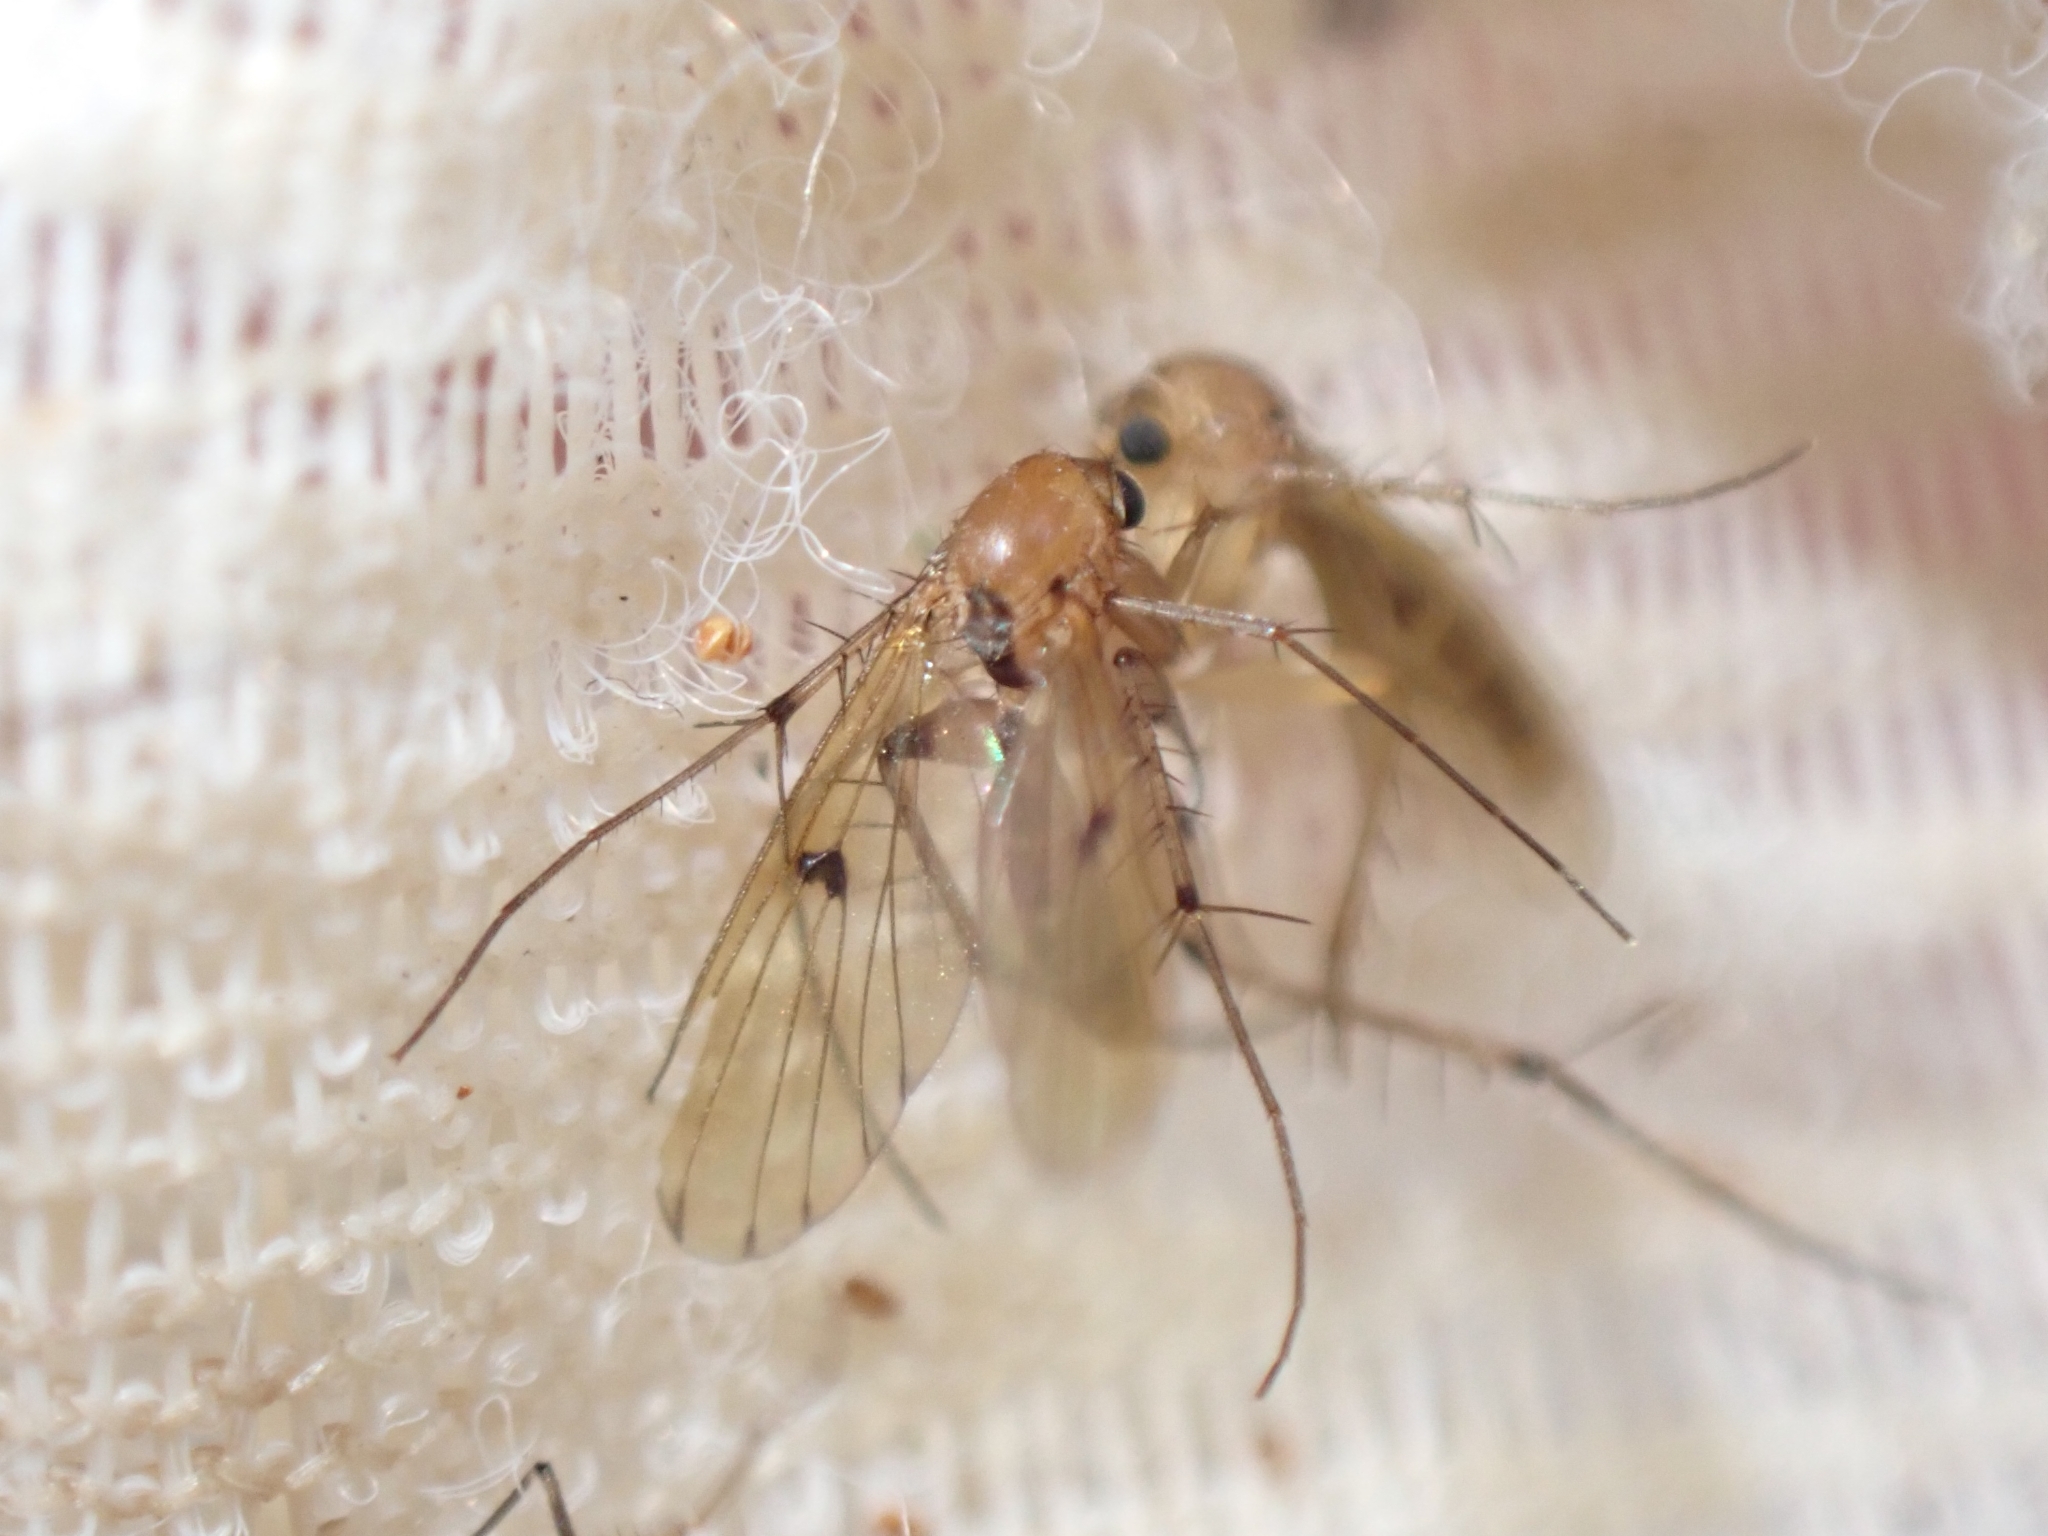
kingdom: Animalia
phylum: Arthropoda
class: Insecta
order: Diptera
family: Mycetophilidae
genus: Mycetophila
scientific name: Mycetophila marginepunctata
